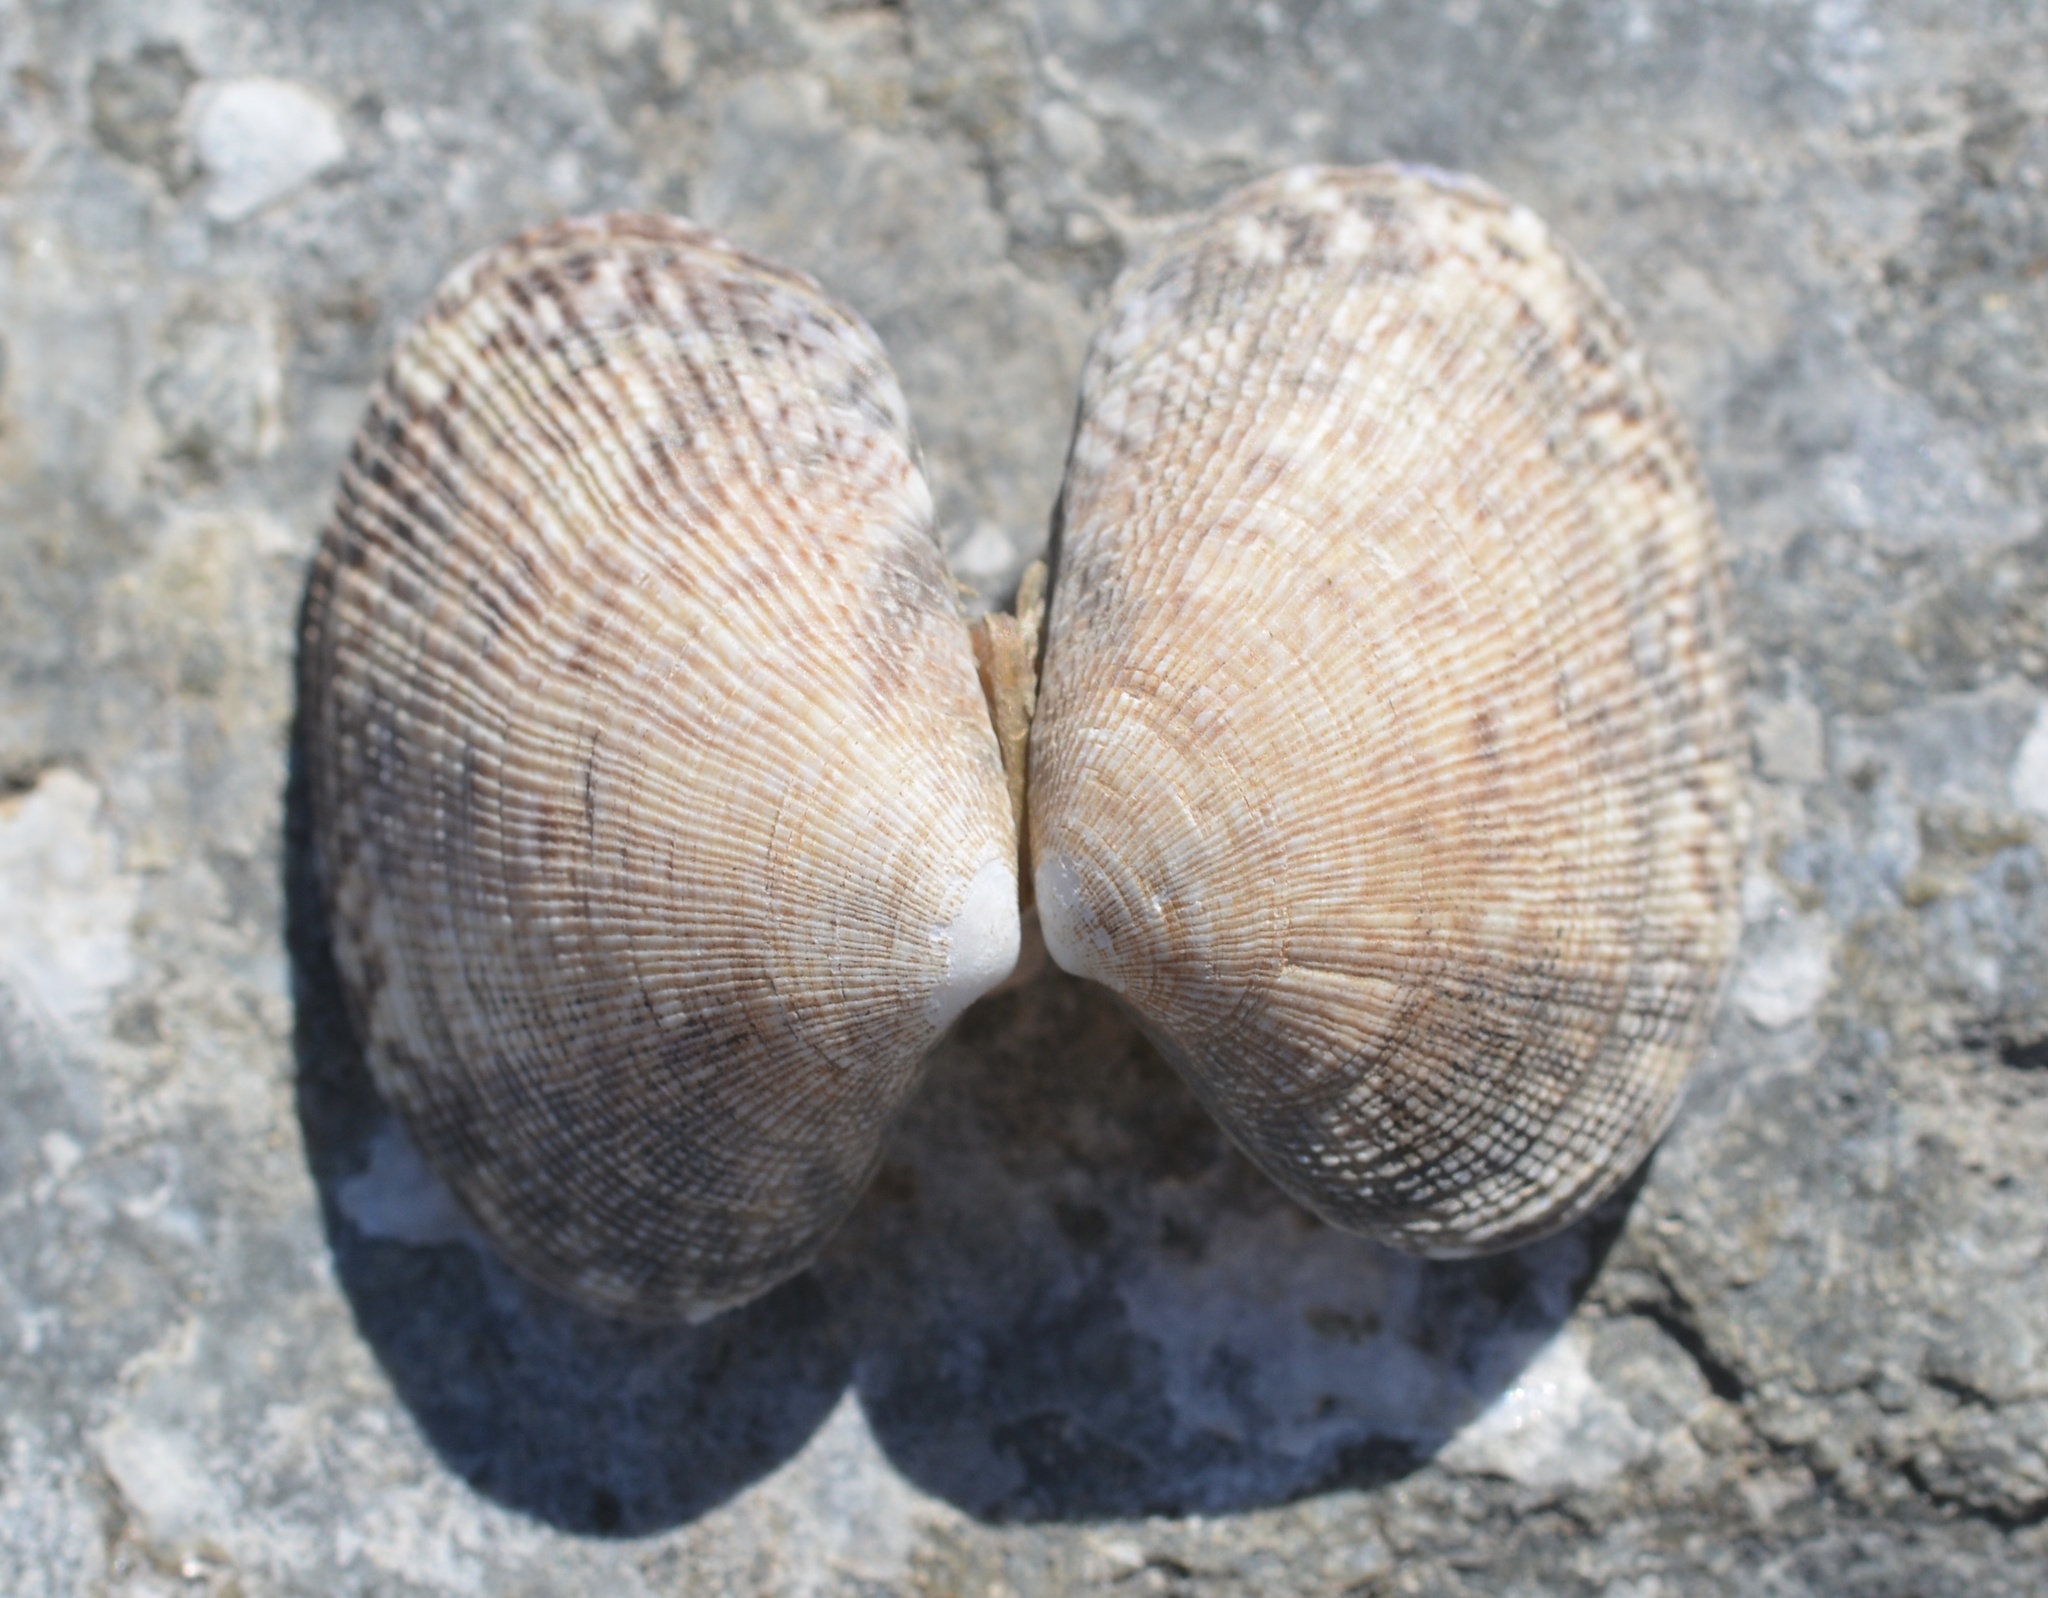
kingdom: Animalia
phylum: Mollusca
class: Bivalvia
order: Venerida
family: Veneridae
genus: Ruditapes
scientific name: Ruditapes philippinarum
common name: Manila clam
